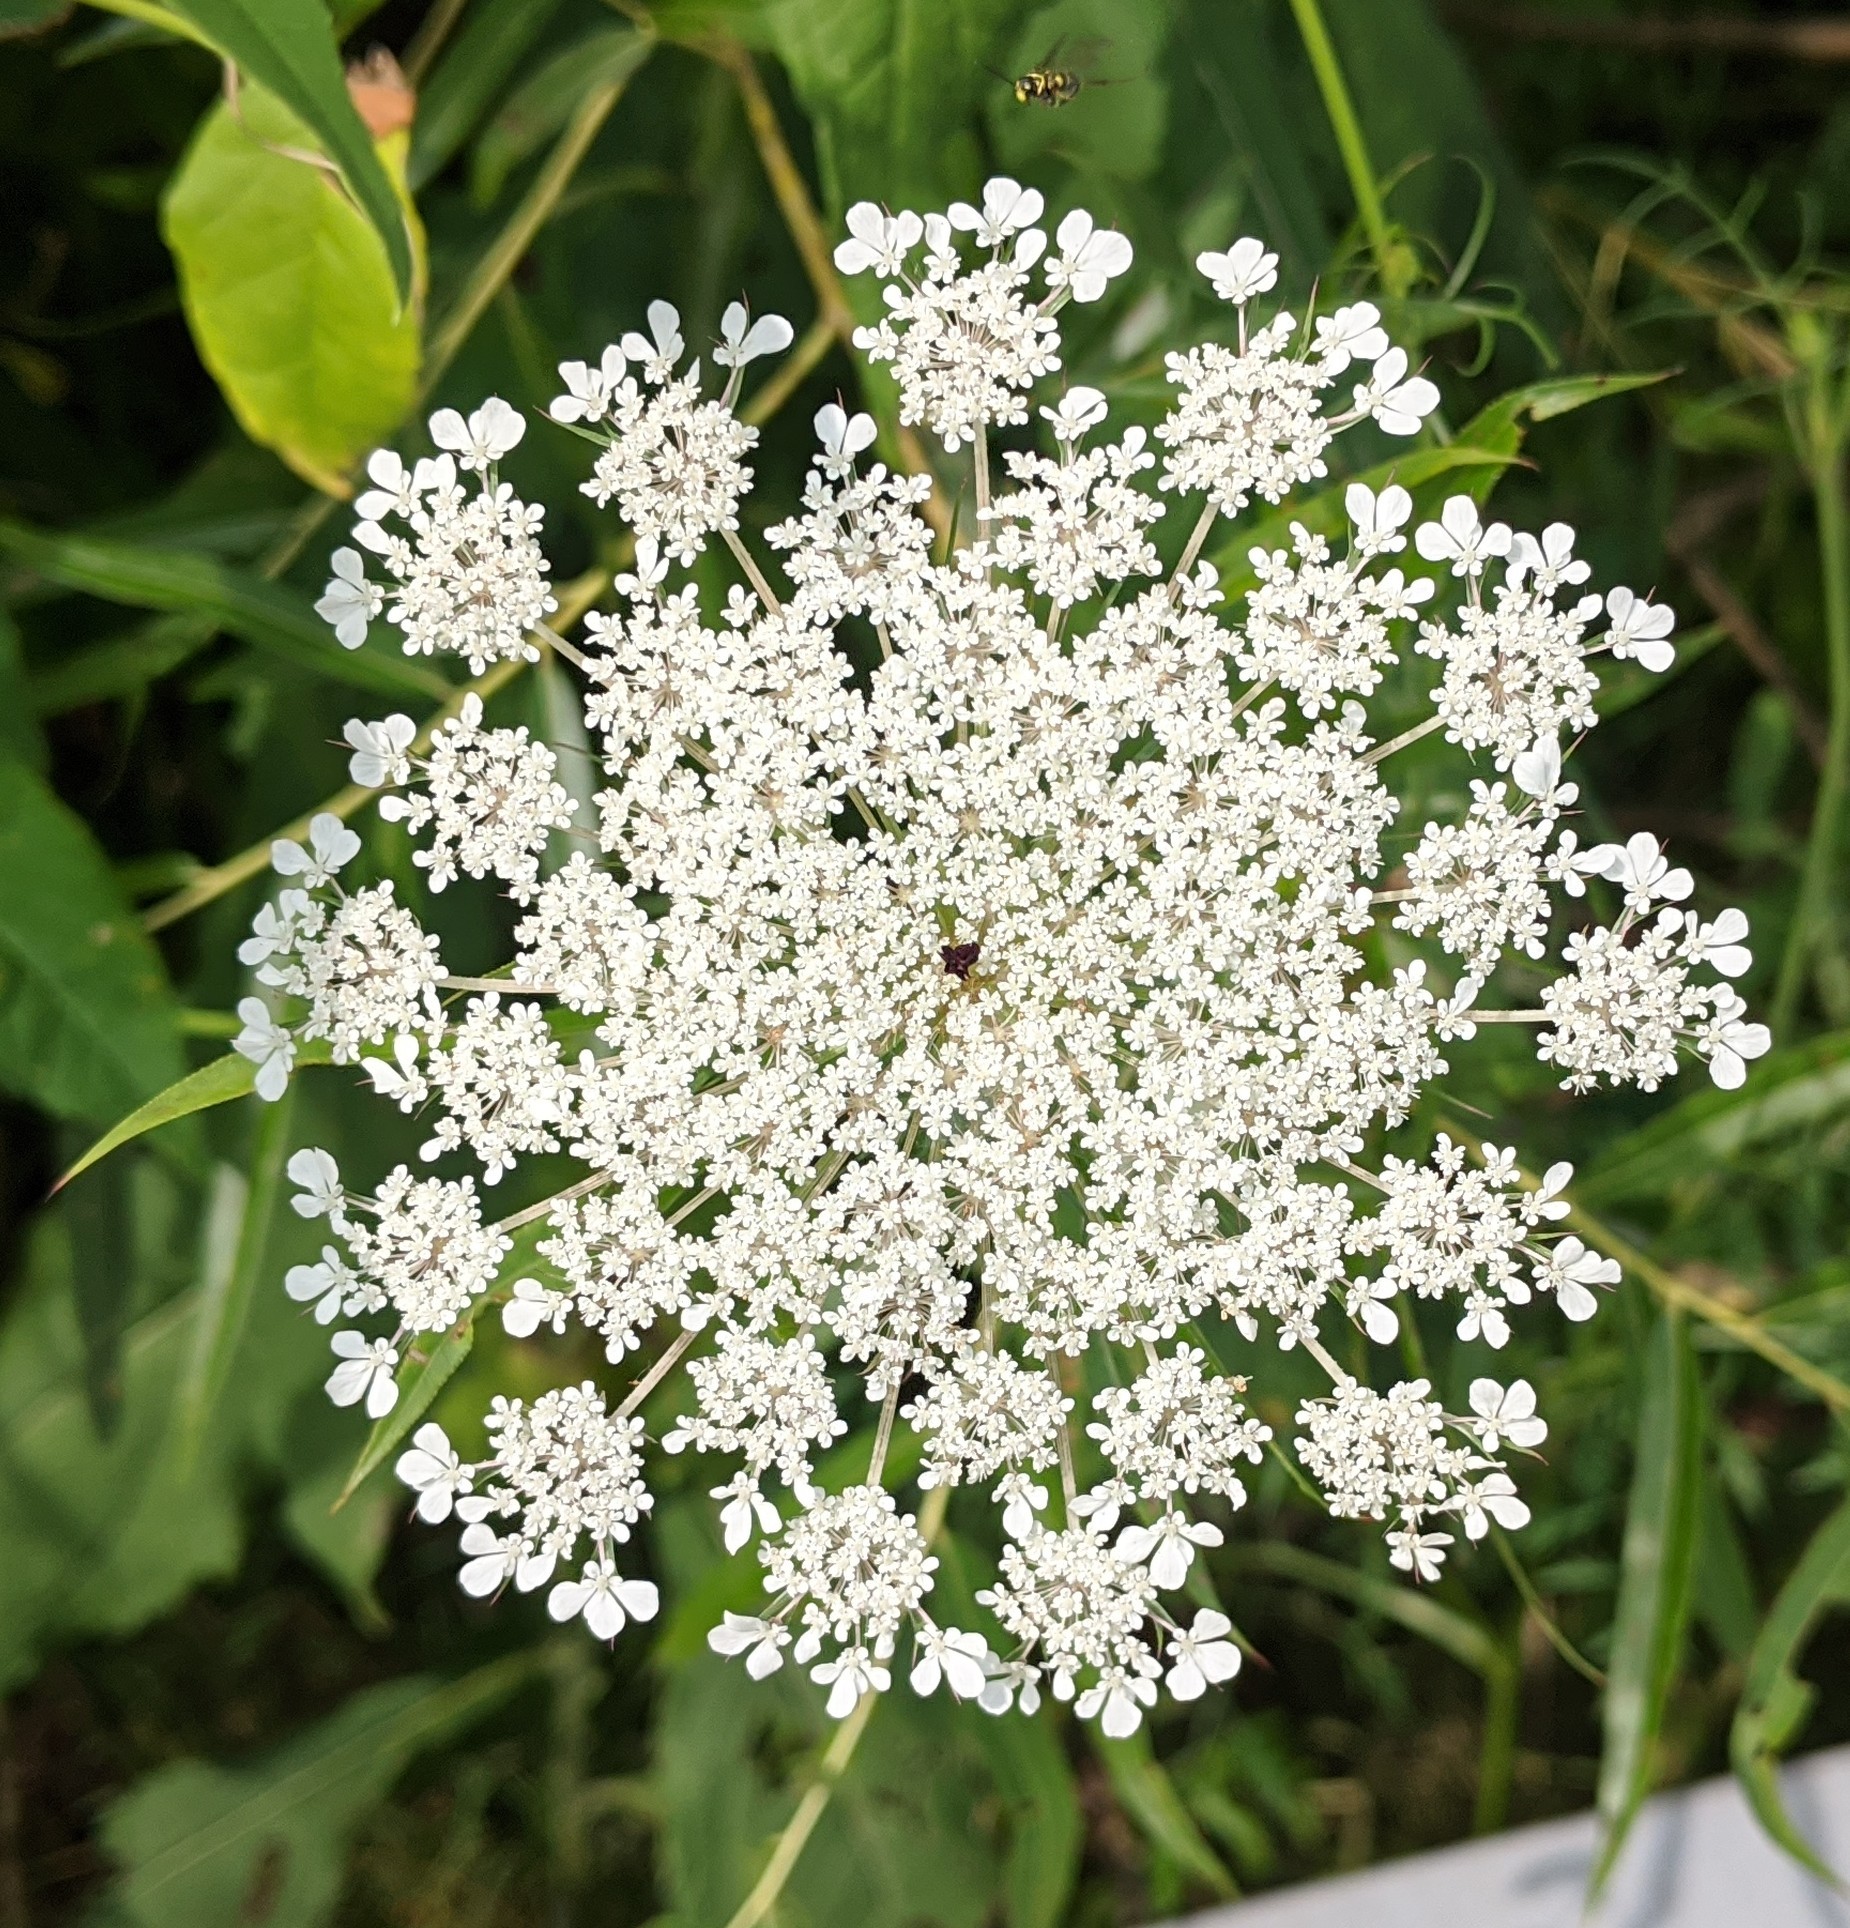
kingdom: Plantae
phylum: Tracheophyta
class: Magnoliopsida
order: Apiales
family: Apiaceae
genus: Daucus
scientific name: Daucus carota
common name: Wild carrot
